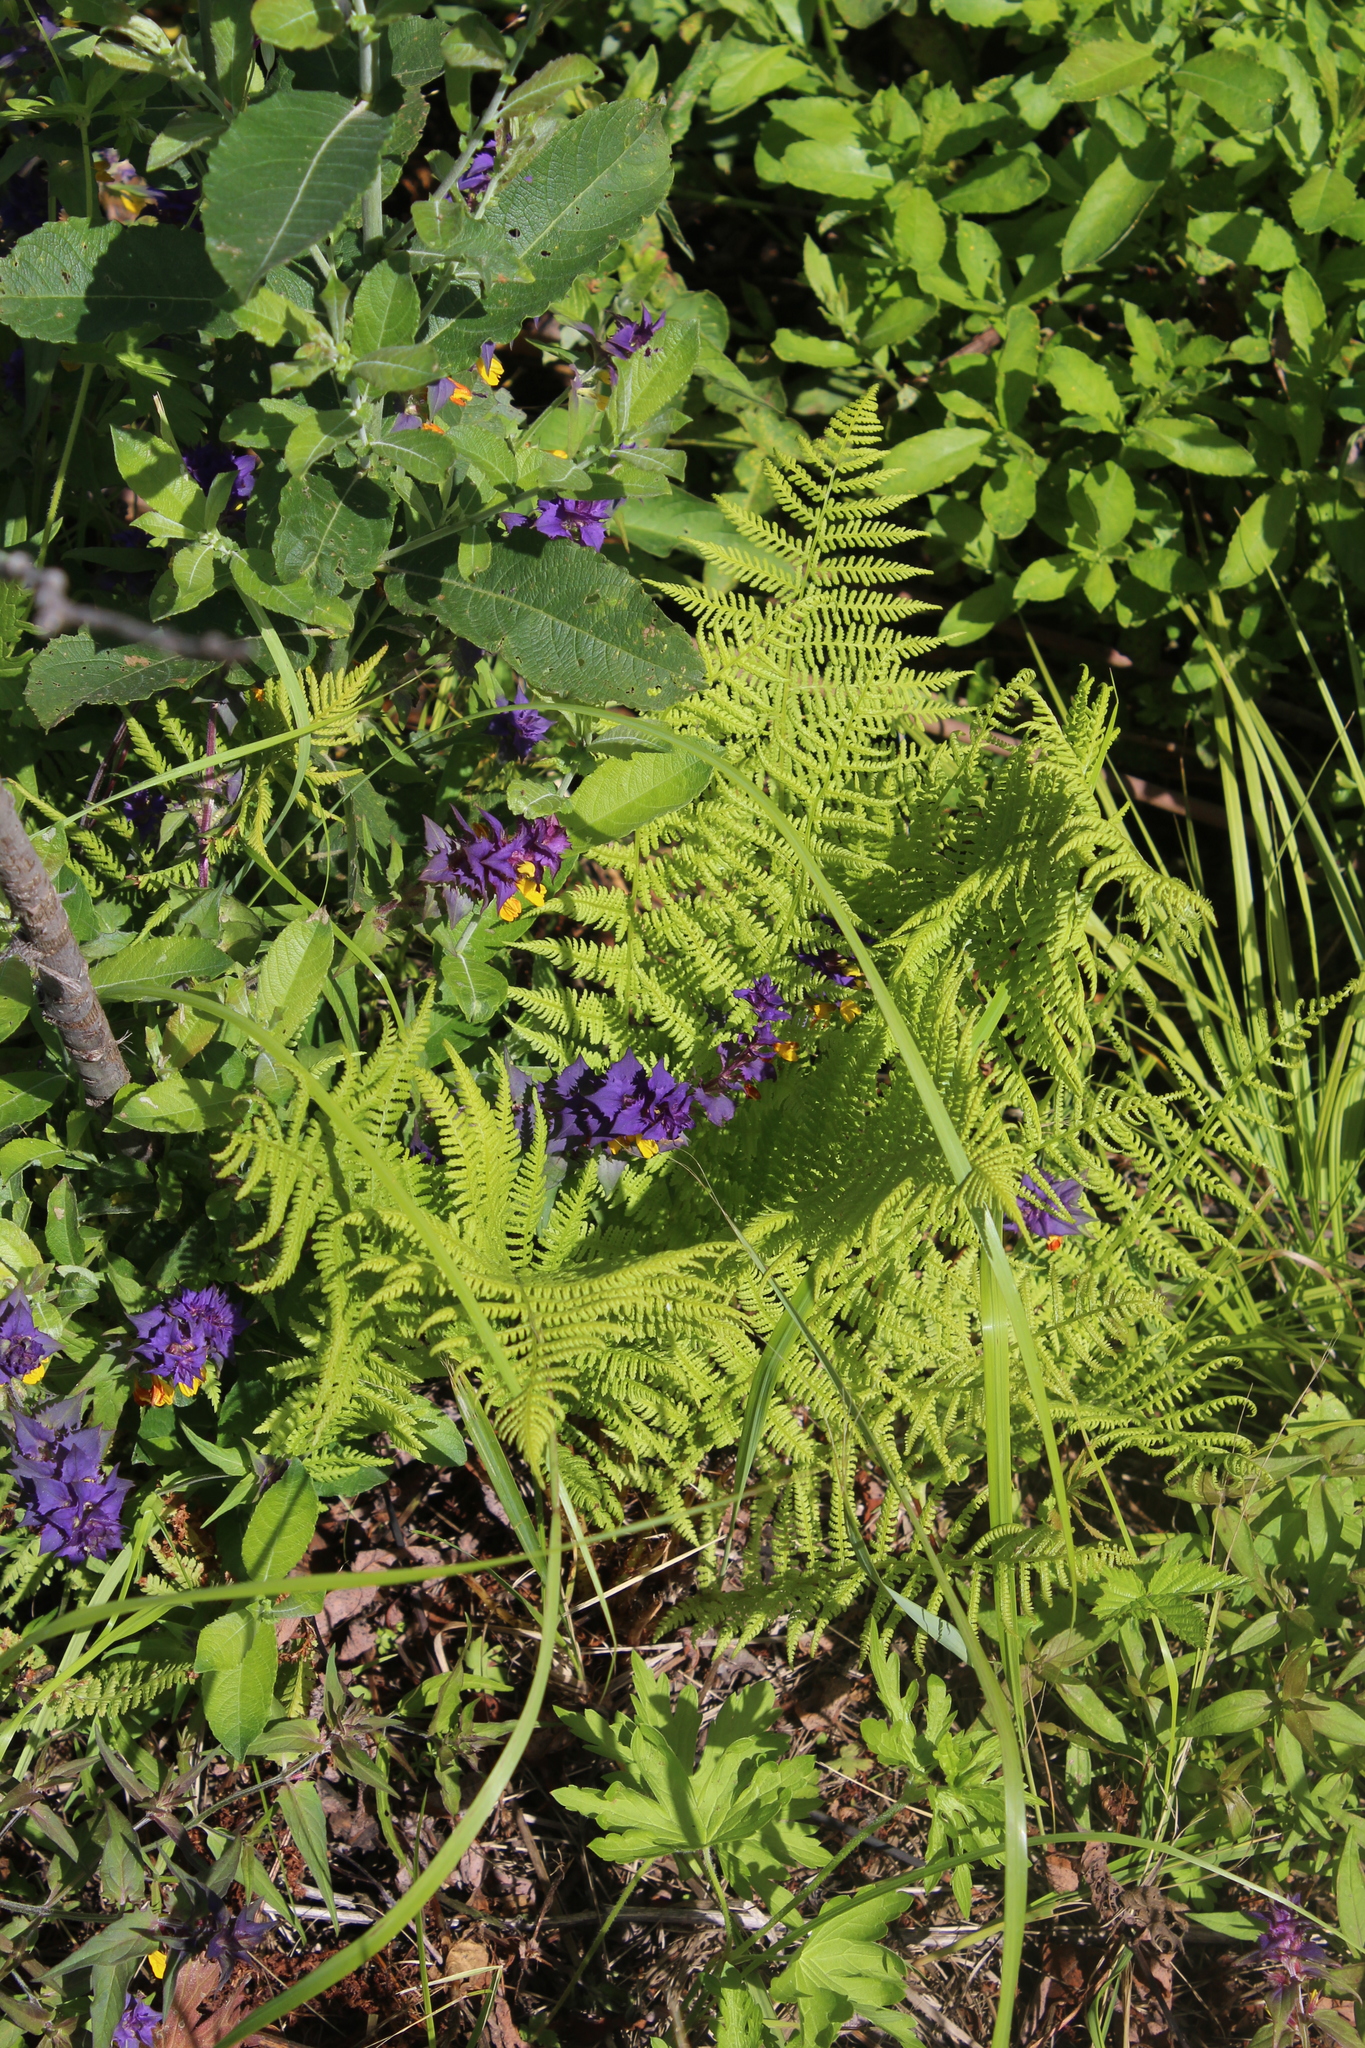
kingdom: Plantae
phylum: Tracheophyta
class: Polypodiopsida
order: Polypodiales
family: Athyriaceae
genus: Athyrium
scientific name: Athyrium filix-femina
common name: Lady fern
